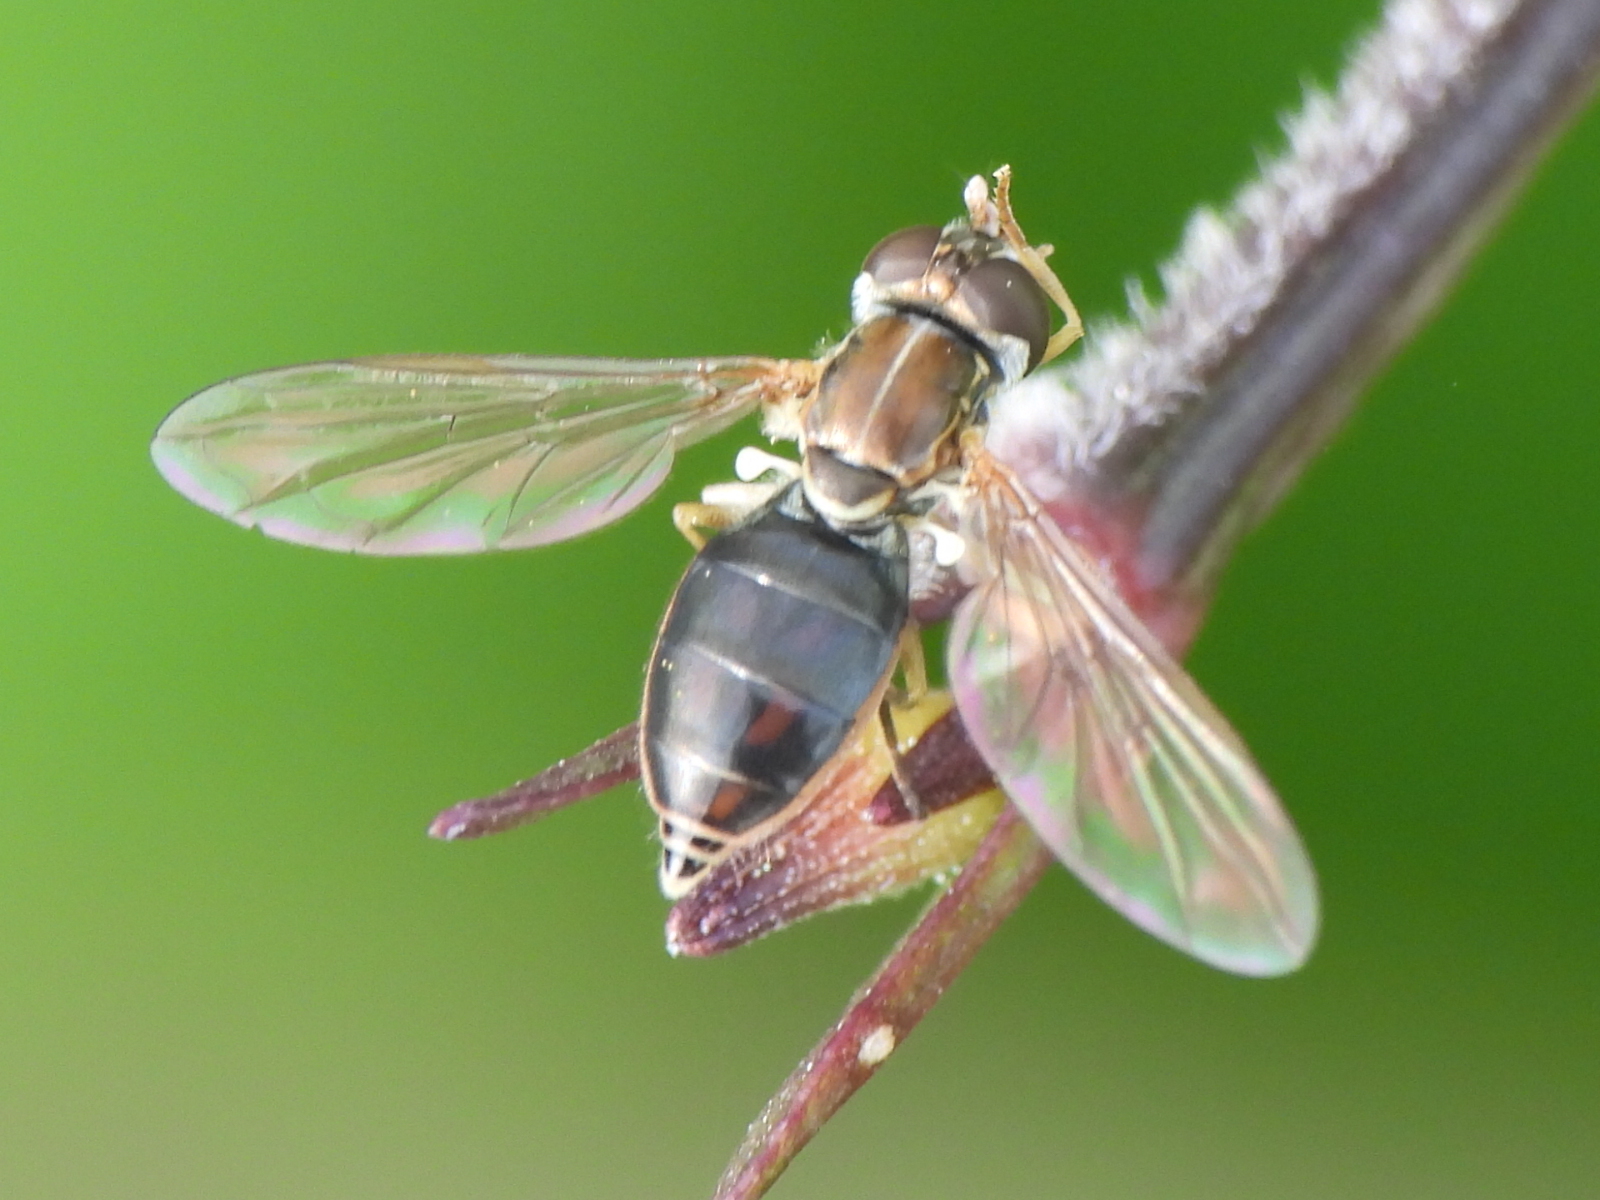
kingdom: Animalia
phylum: Arthropoda
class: Insecta
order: Diptera
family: Syrphidae
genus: Toxomerus
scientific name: Toxomerus marginatus
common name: Syrphid fly
